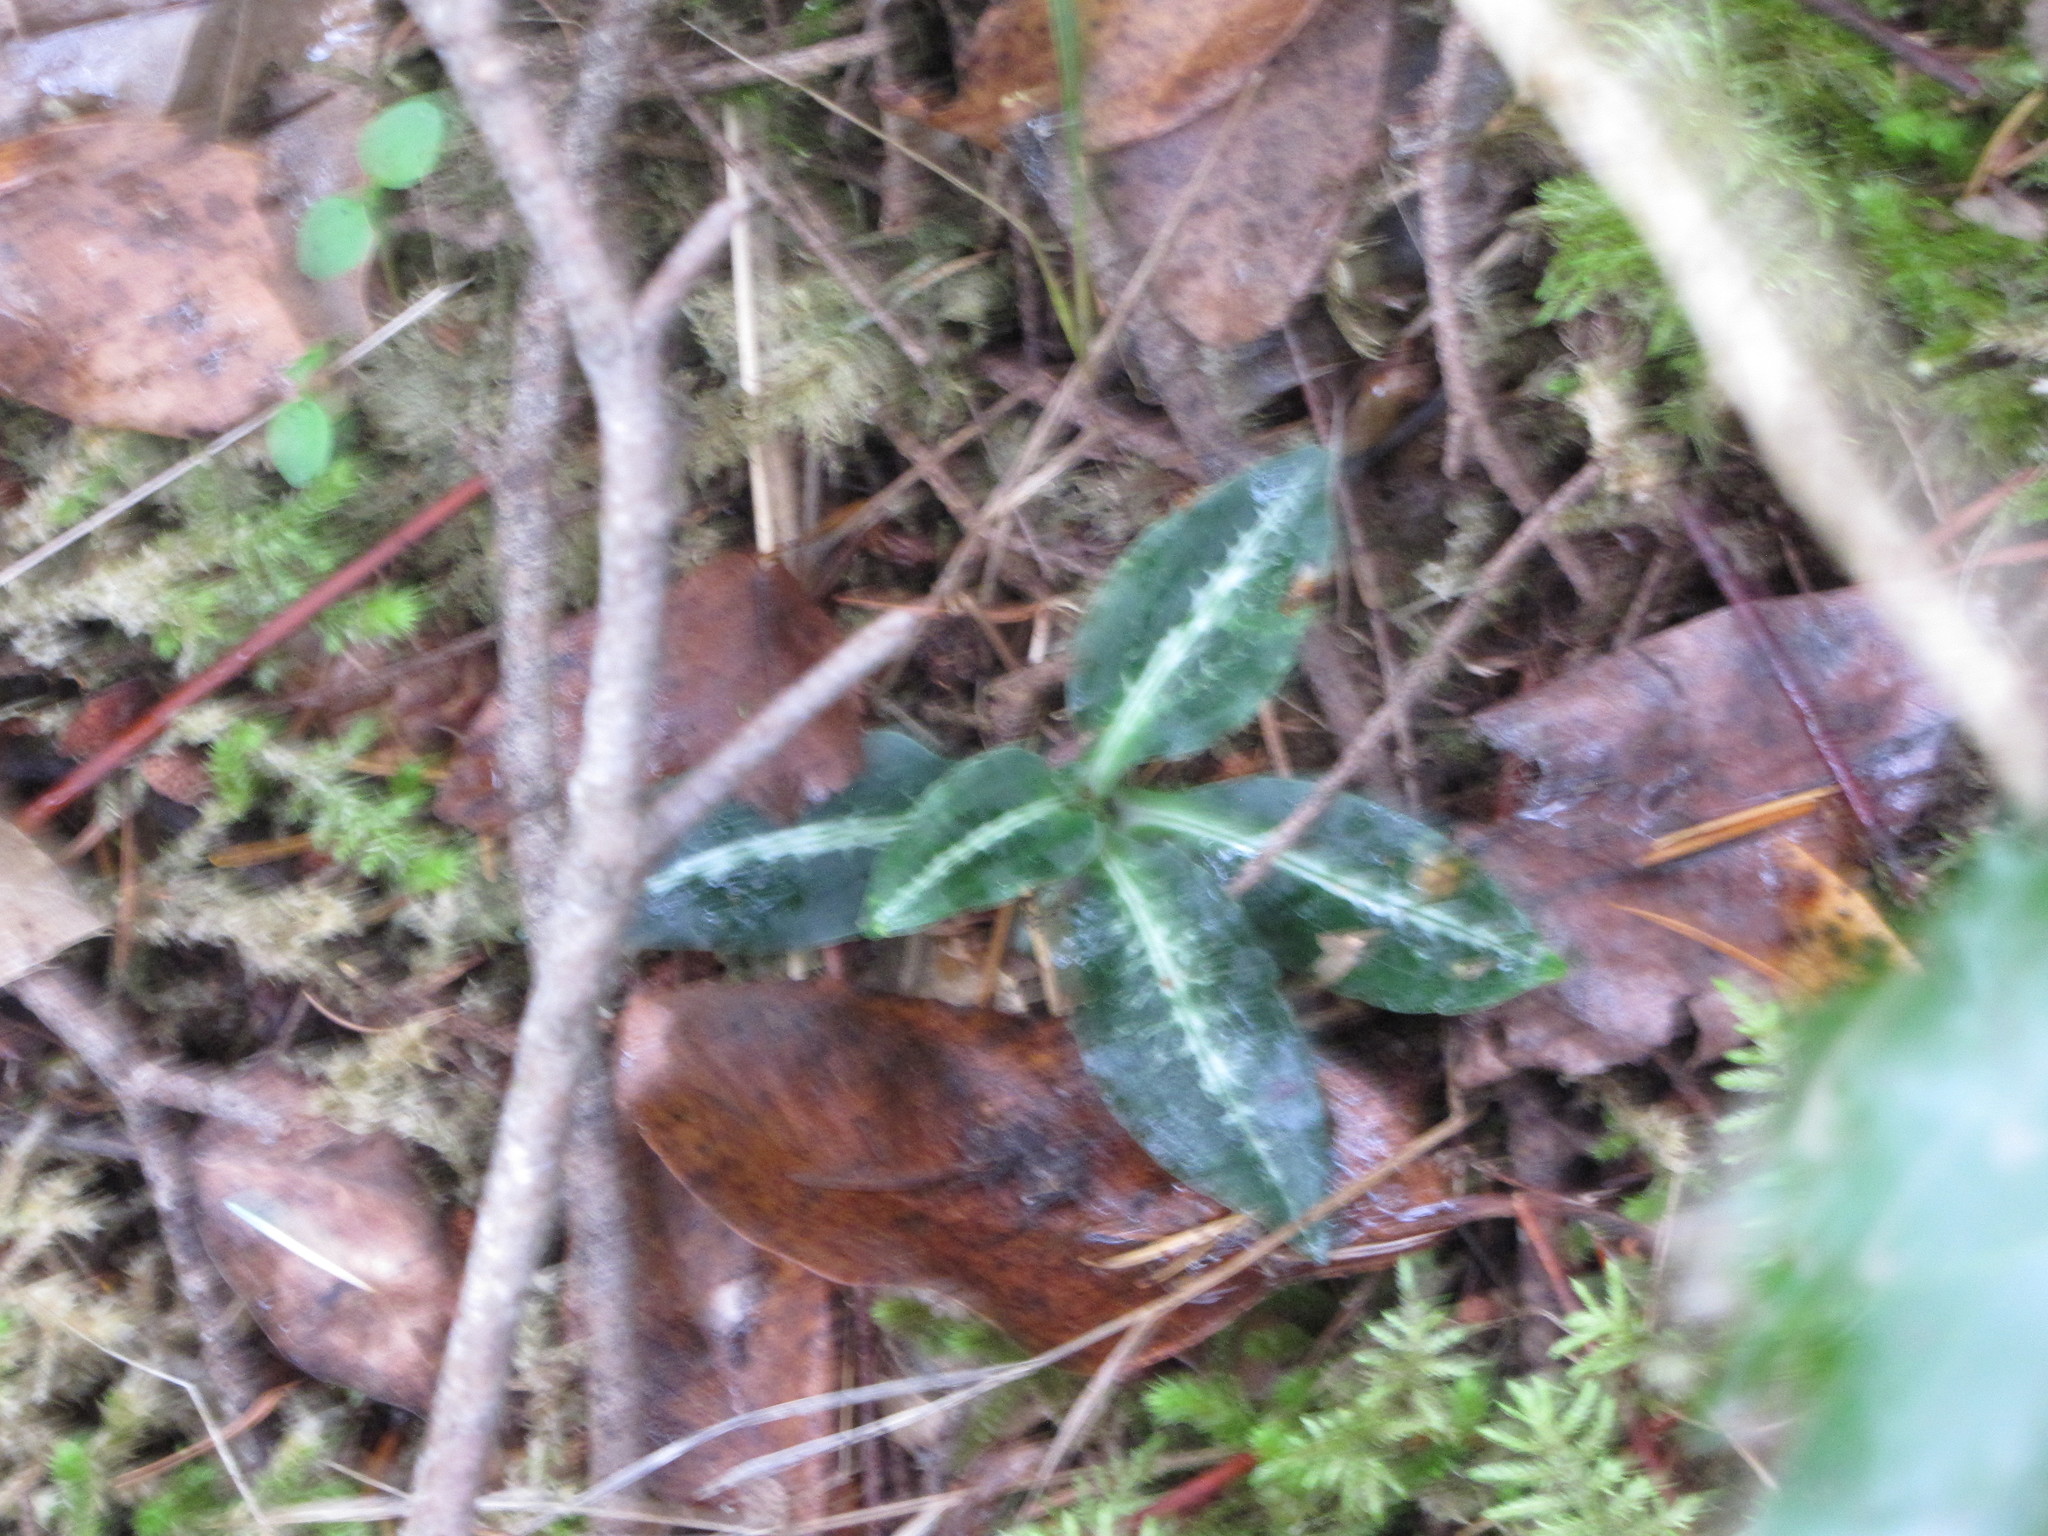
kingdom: Plantae
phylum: Tracheophyta
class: Liliopsida
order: Asparagales
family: Orchidaceae
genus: Goodyera
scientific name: Goodyera oblongifolia
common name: Giant rattlesnake-plantain
